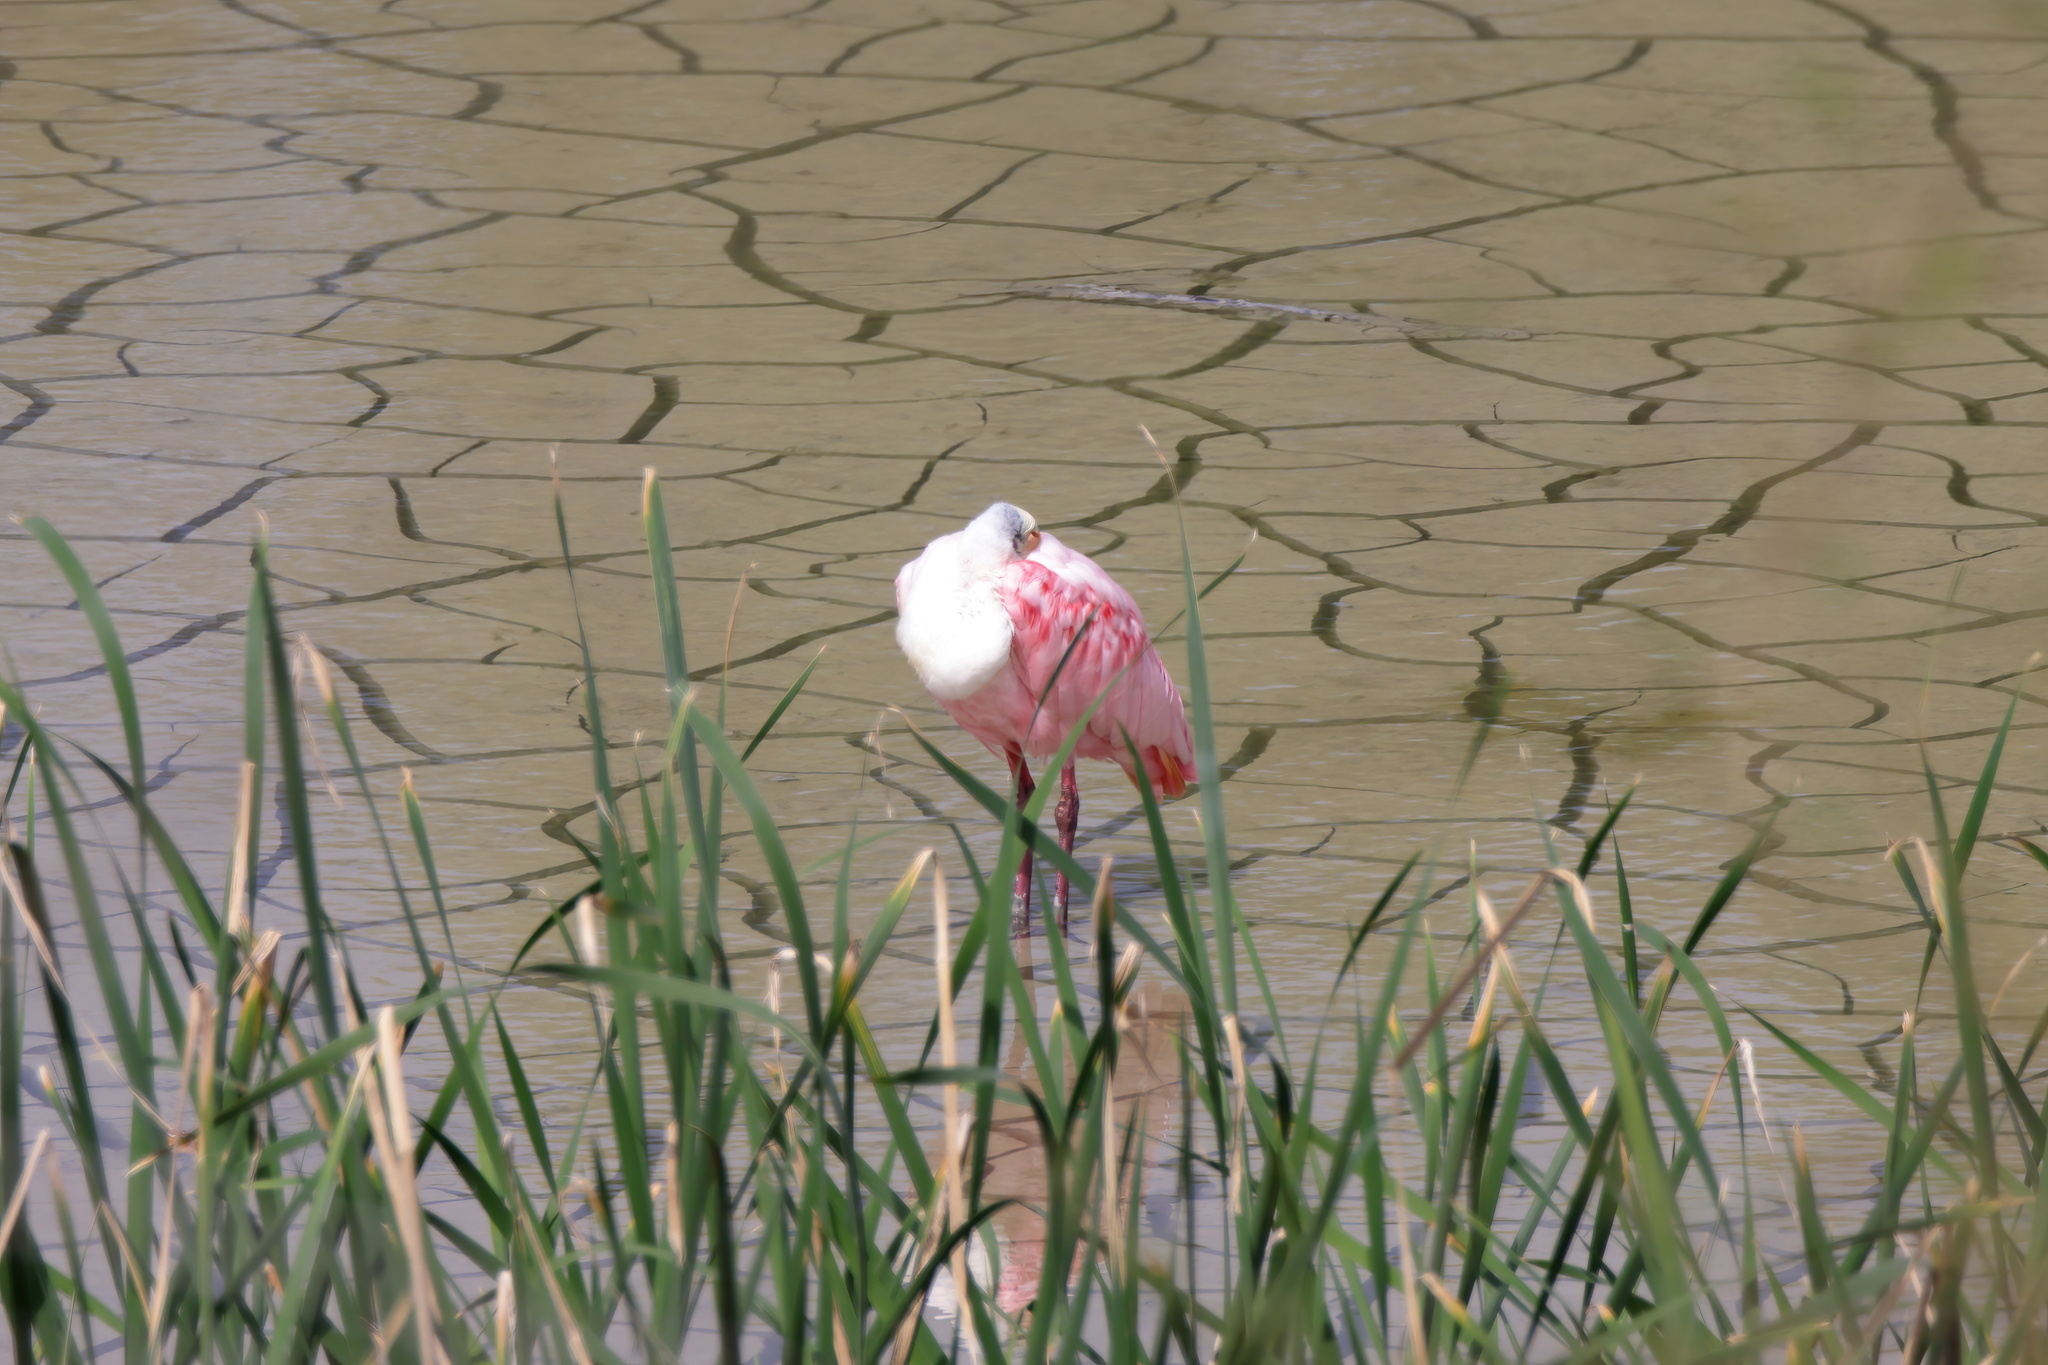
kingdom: Animalia
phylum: Chordata
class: Aves
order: Pelecaniformes
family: Threskiornithidae
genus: Platalea
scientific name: Platalea ajaja
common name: Roseate spoonbill
